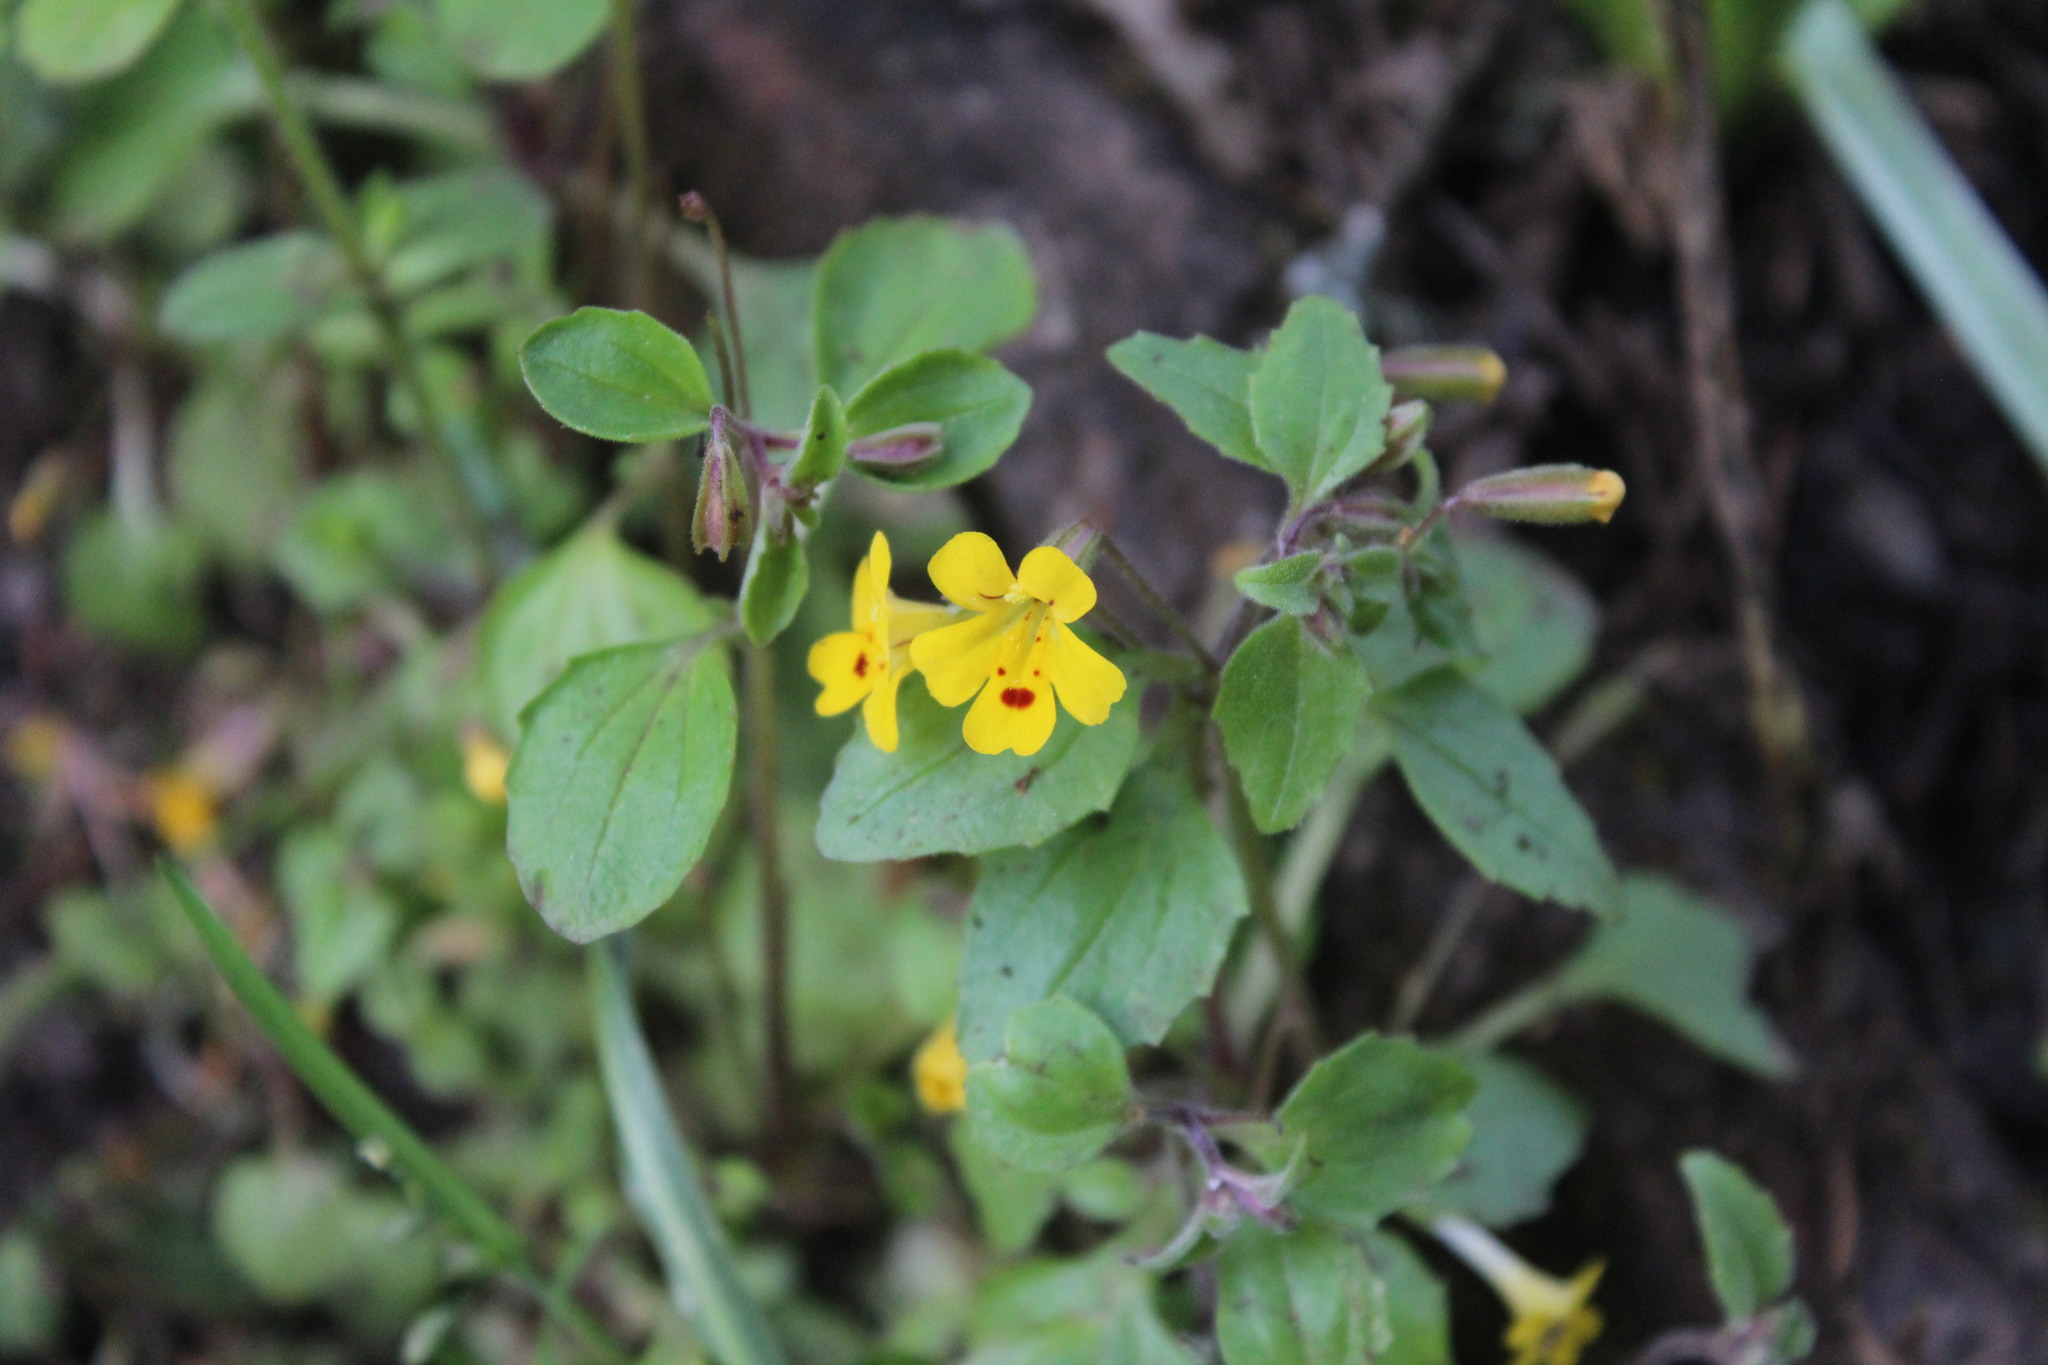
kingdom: Plantae
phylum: Tracheophyta
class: Magnoliopsida
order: Lamiales
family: Phrymaceae
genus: Erythranthe
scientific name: Erythranthe alsinoides
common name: Chickweed monkeyflower
